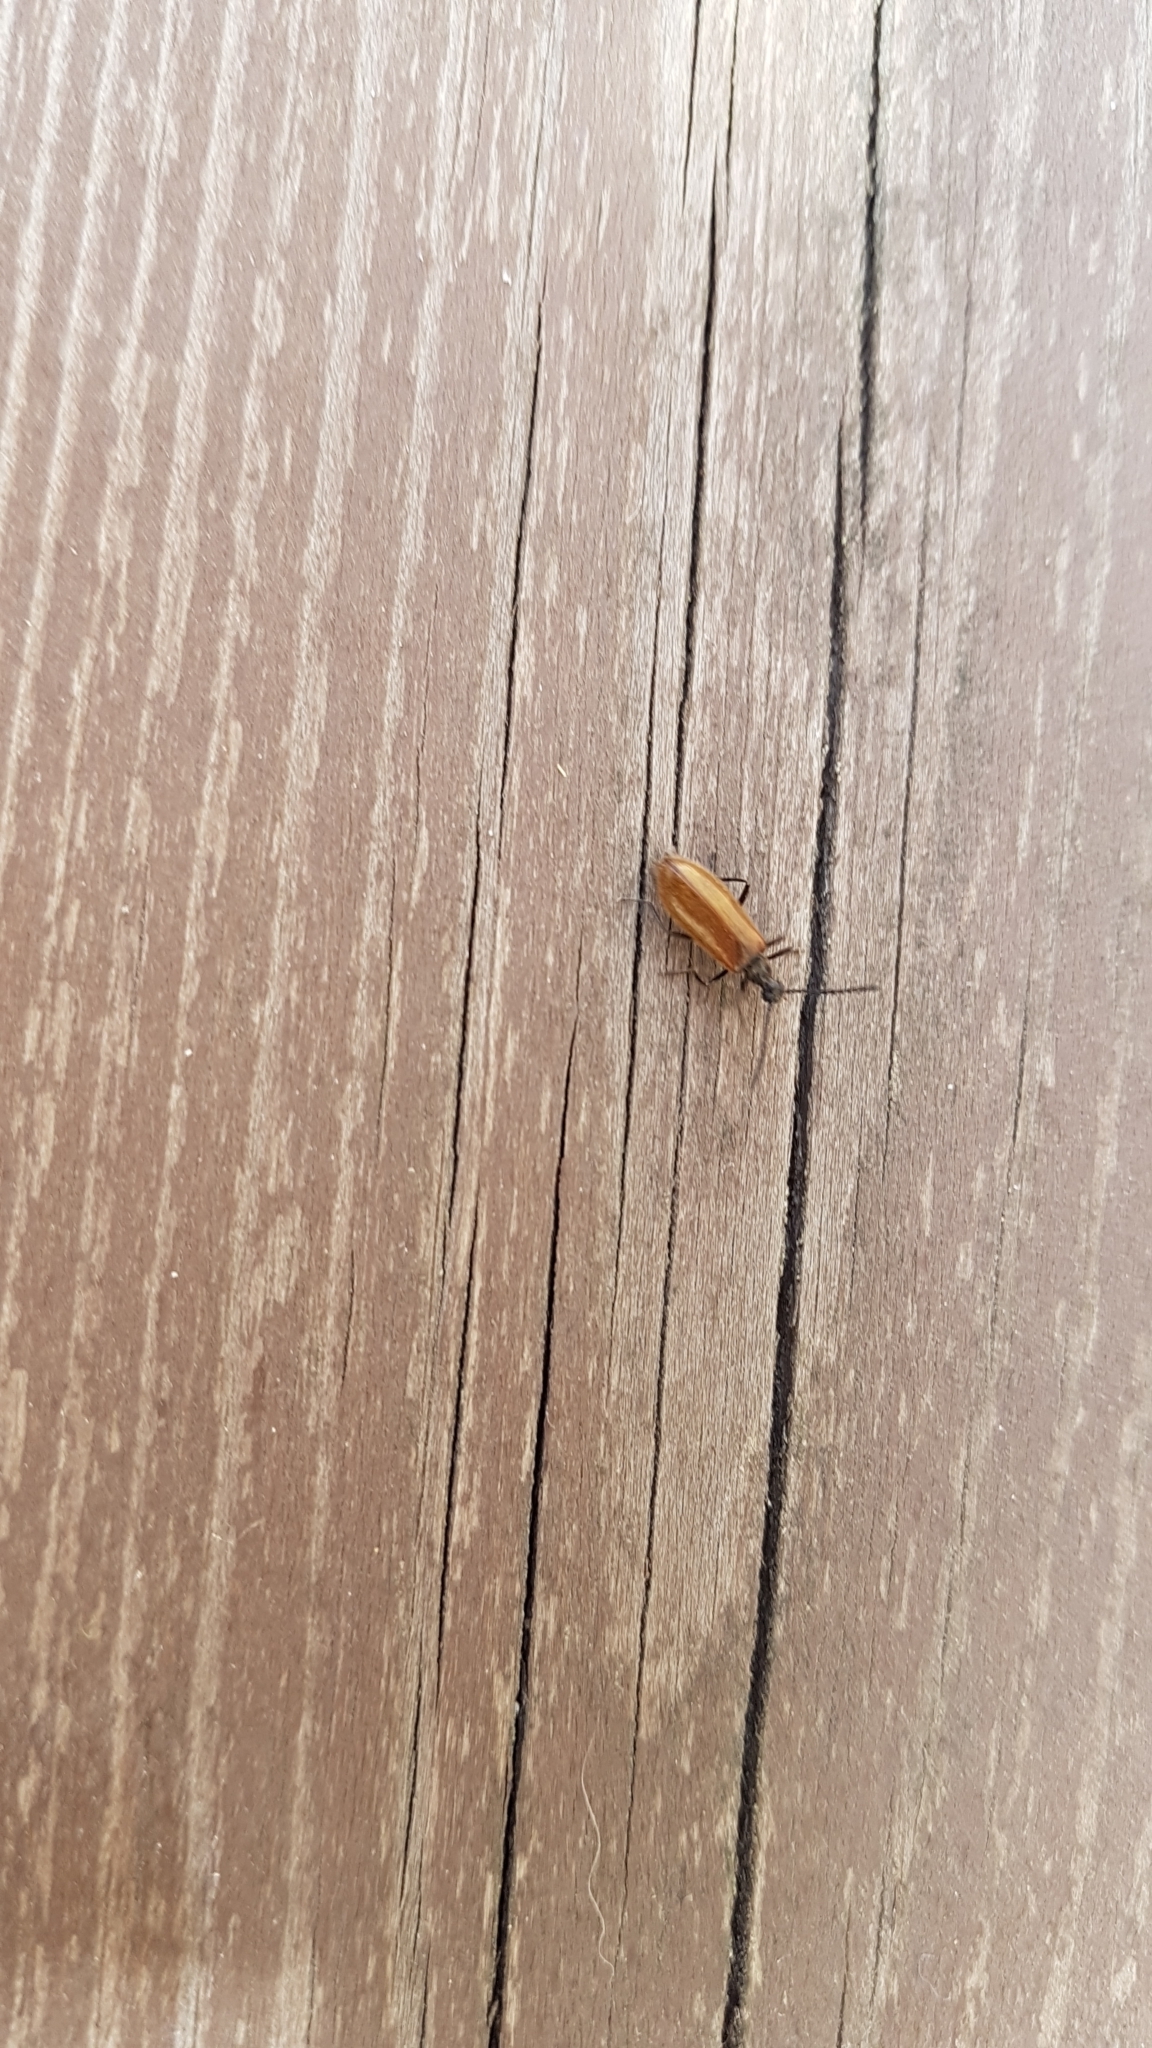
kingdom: Animalia
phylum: Arthropoda
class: Insecta
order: Coleoptera
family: Tenebrionidae
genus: Lagria
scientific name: Lagria hirta
